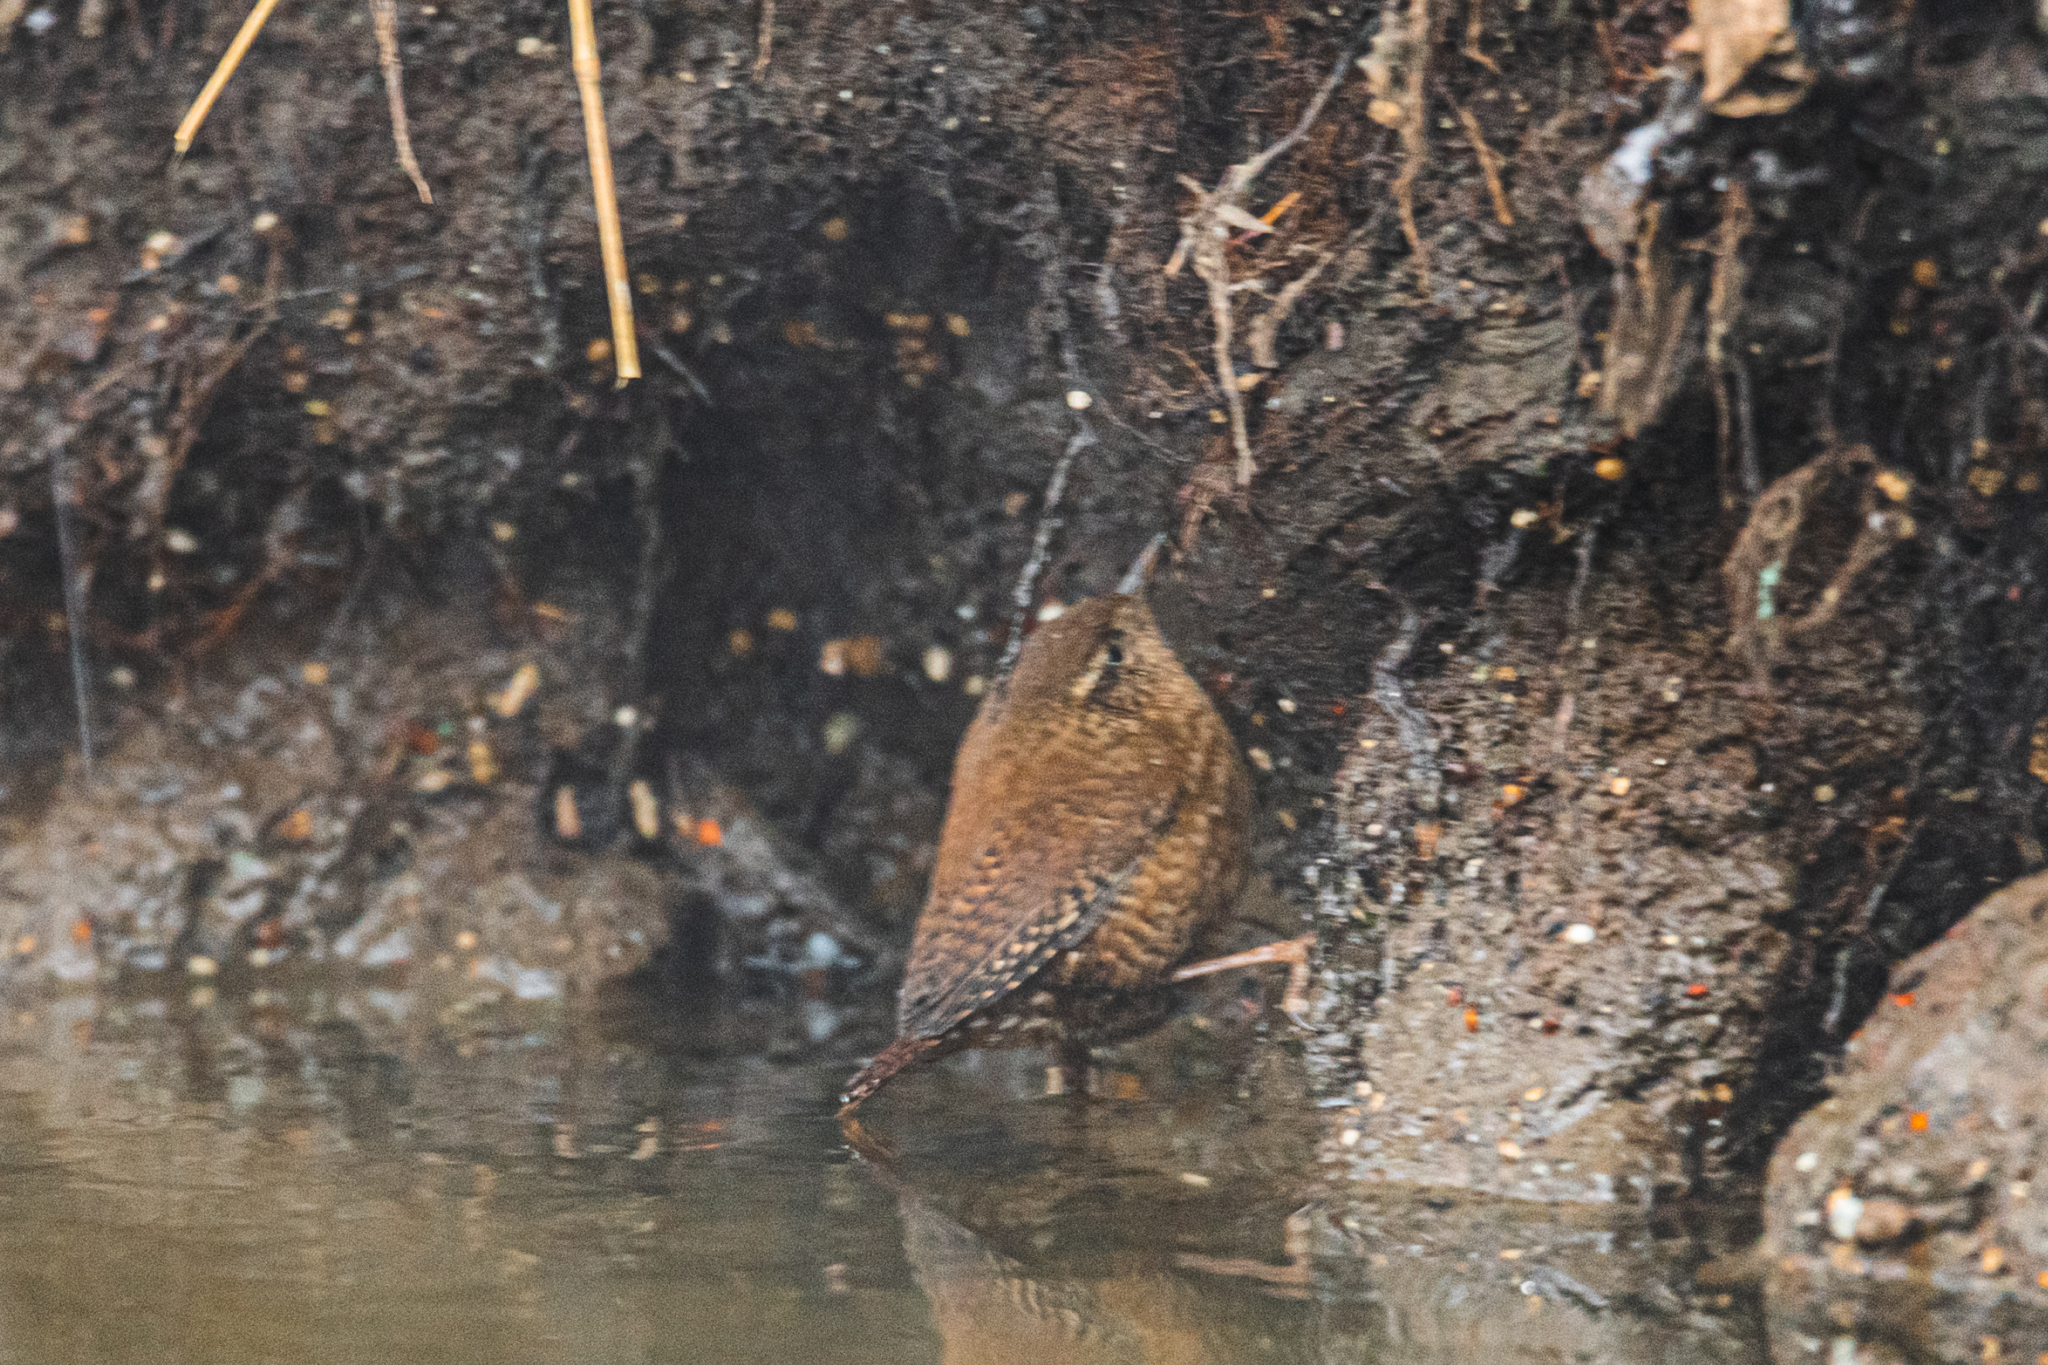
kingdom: Animalia
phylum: Chordata
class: Aves
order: Passeriformes
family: Troglodytidae
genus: Troglodytes
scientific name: Troglodytes troglodytes
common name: Eurasian wren
